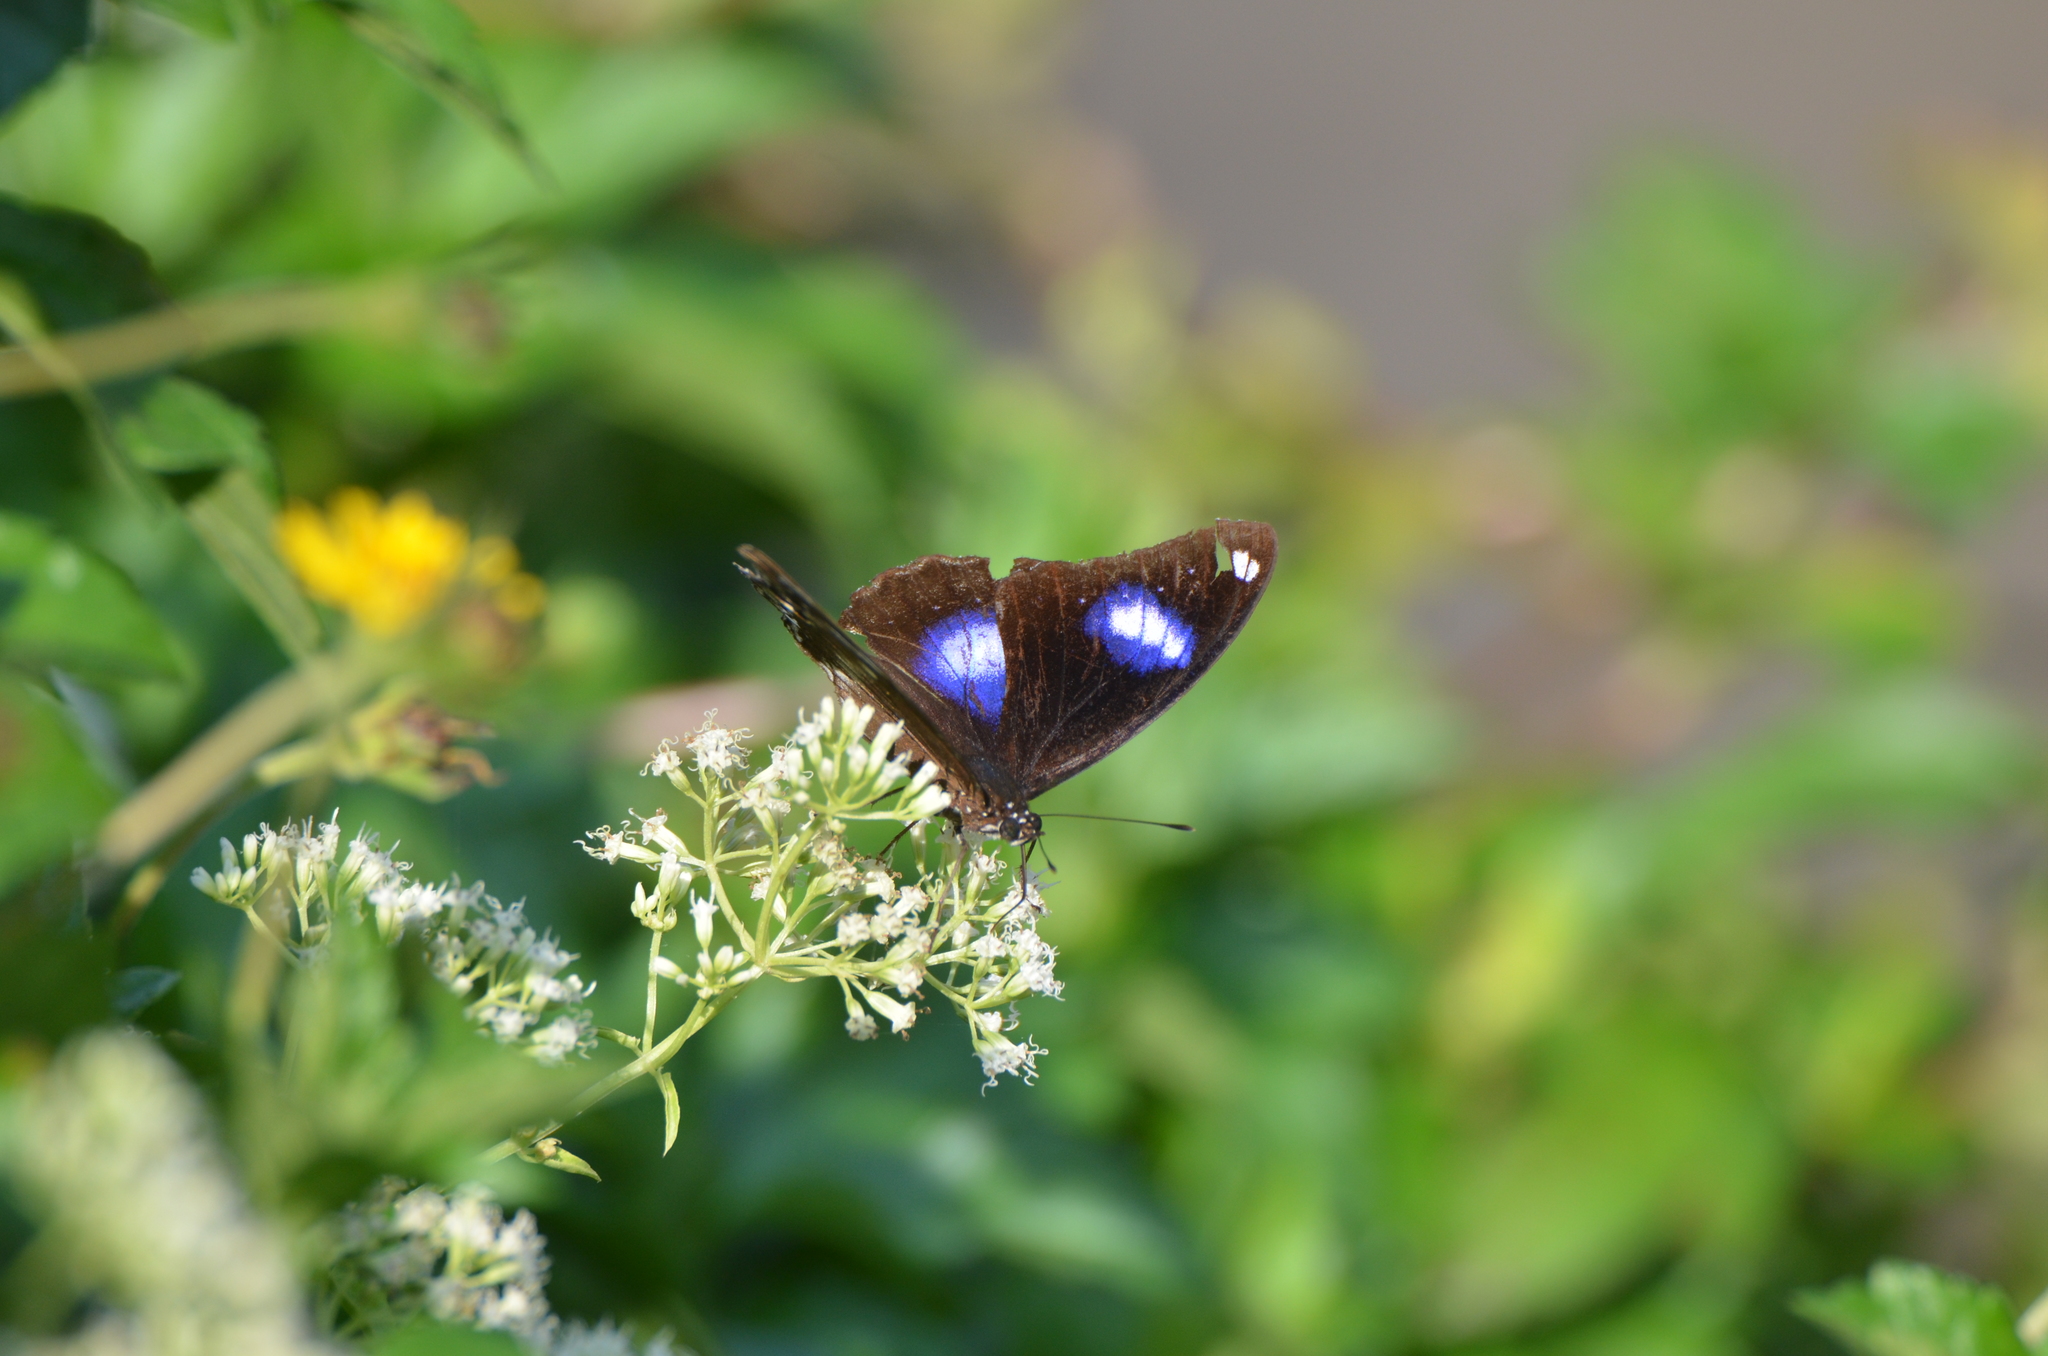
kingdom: Animalia
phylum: Arthropoda
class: Insecta
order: Lepidoptera
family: Nymphalidae
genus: Hypolimnas
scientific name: Hypolimnas bolina
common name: Great eggfly
